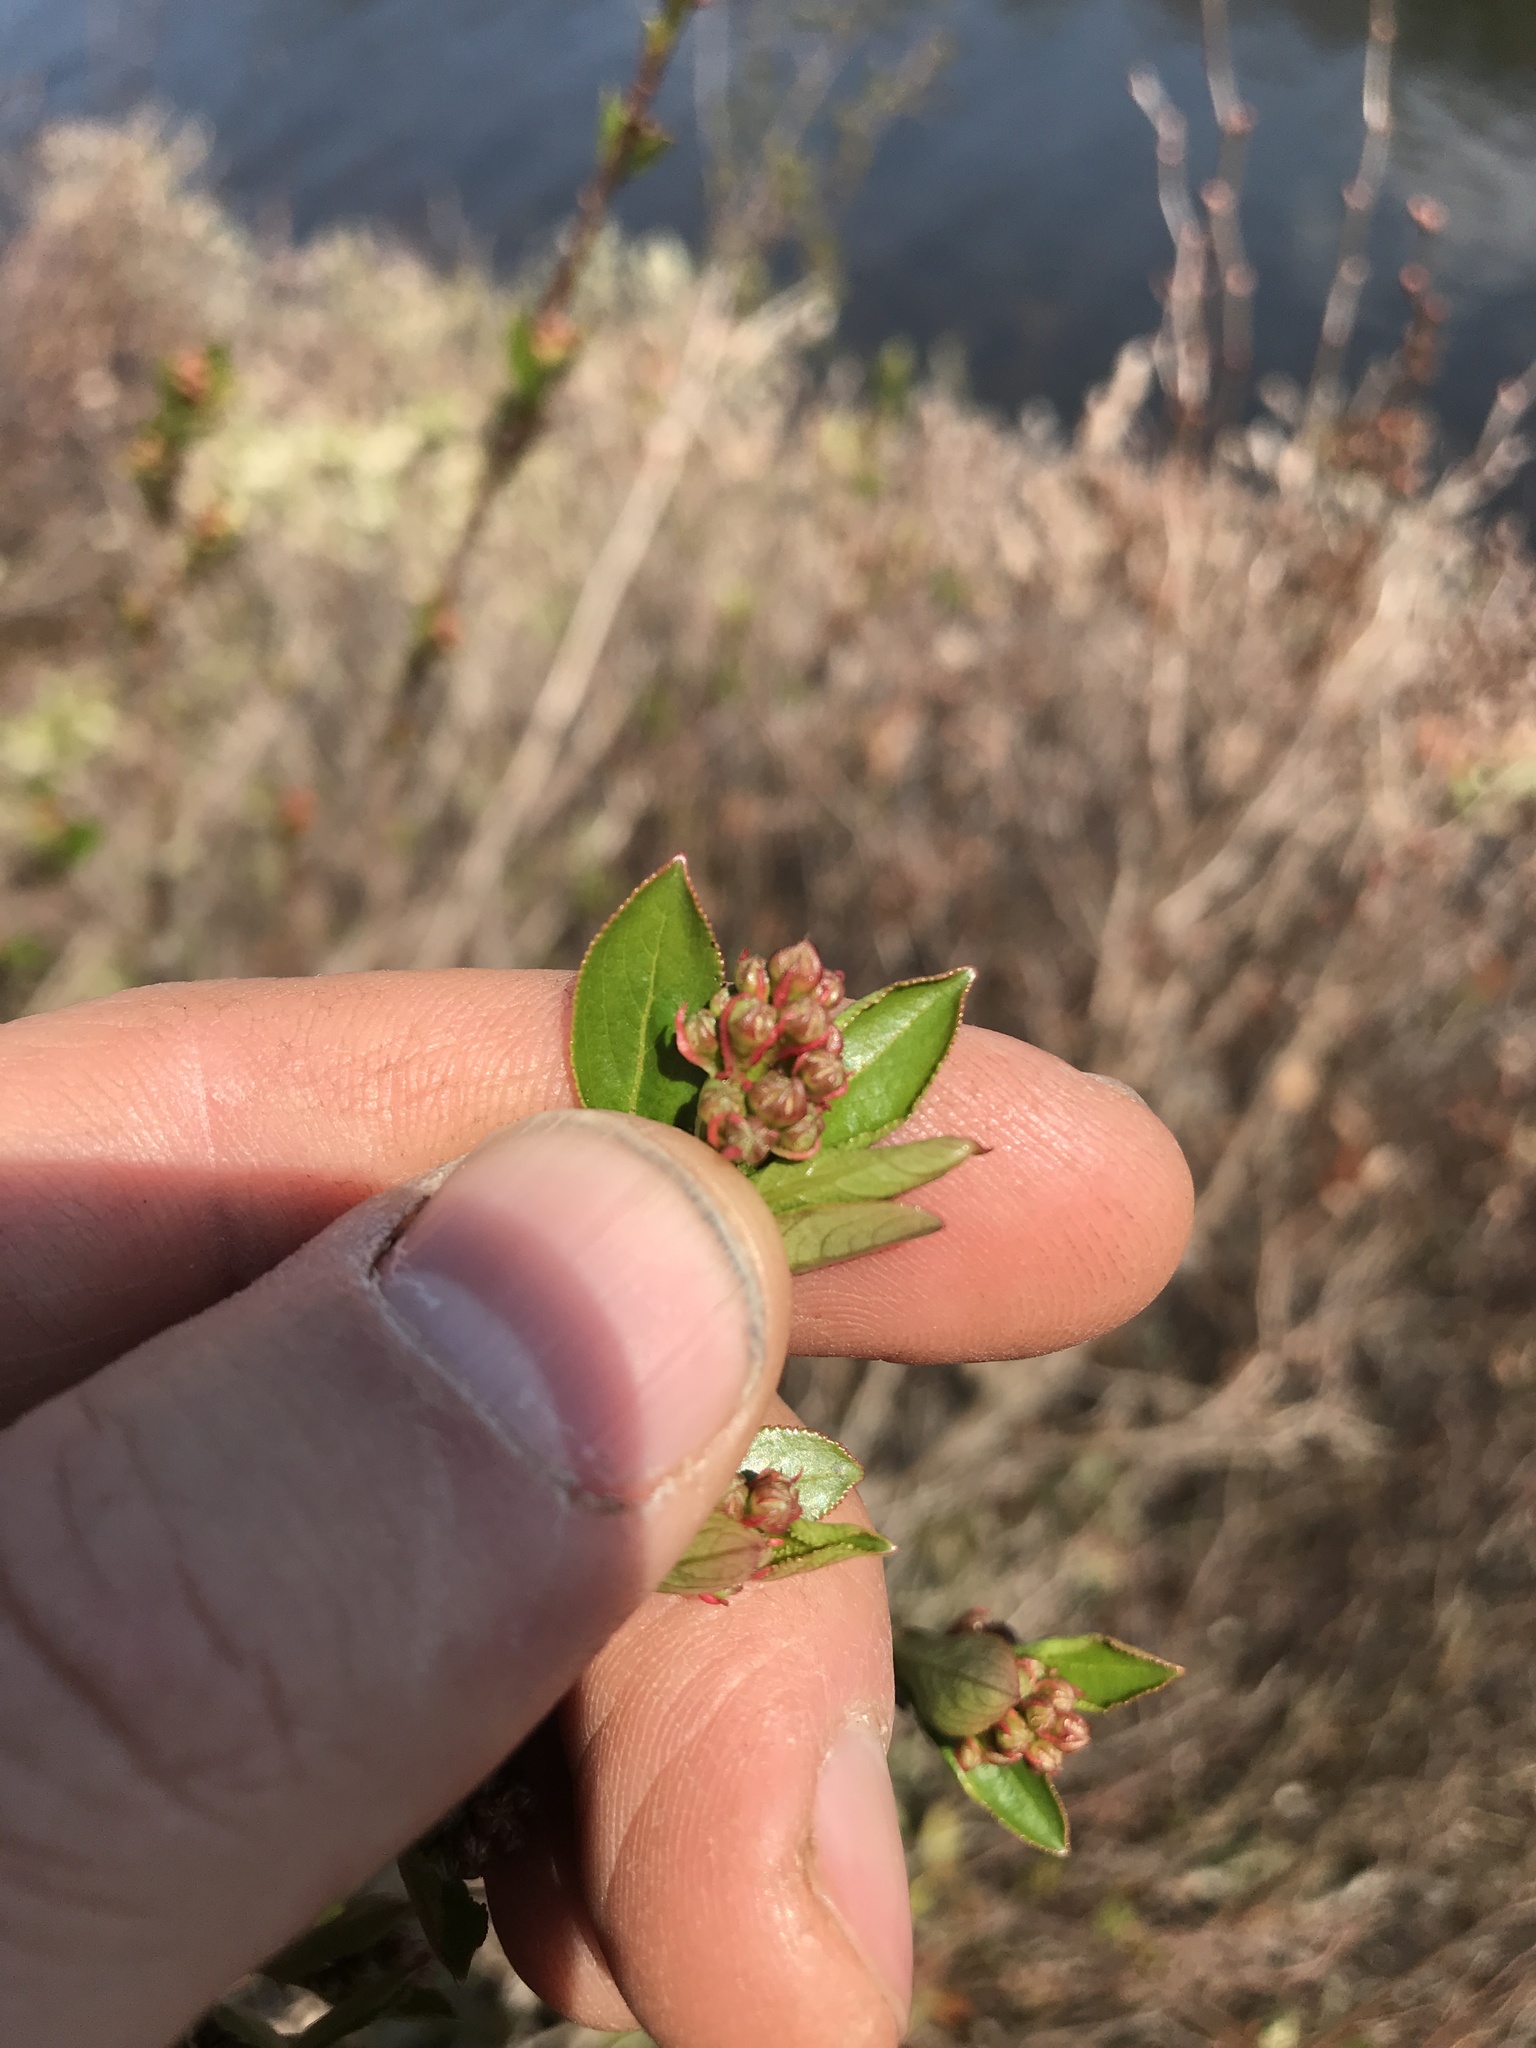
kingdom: Plantae
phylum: Tracheophyta
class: Magnoliopsida
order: Rosales
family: Rosaceae
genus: Aronia
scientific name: Aronia melanocarpa
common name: Black chokeberry
